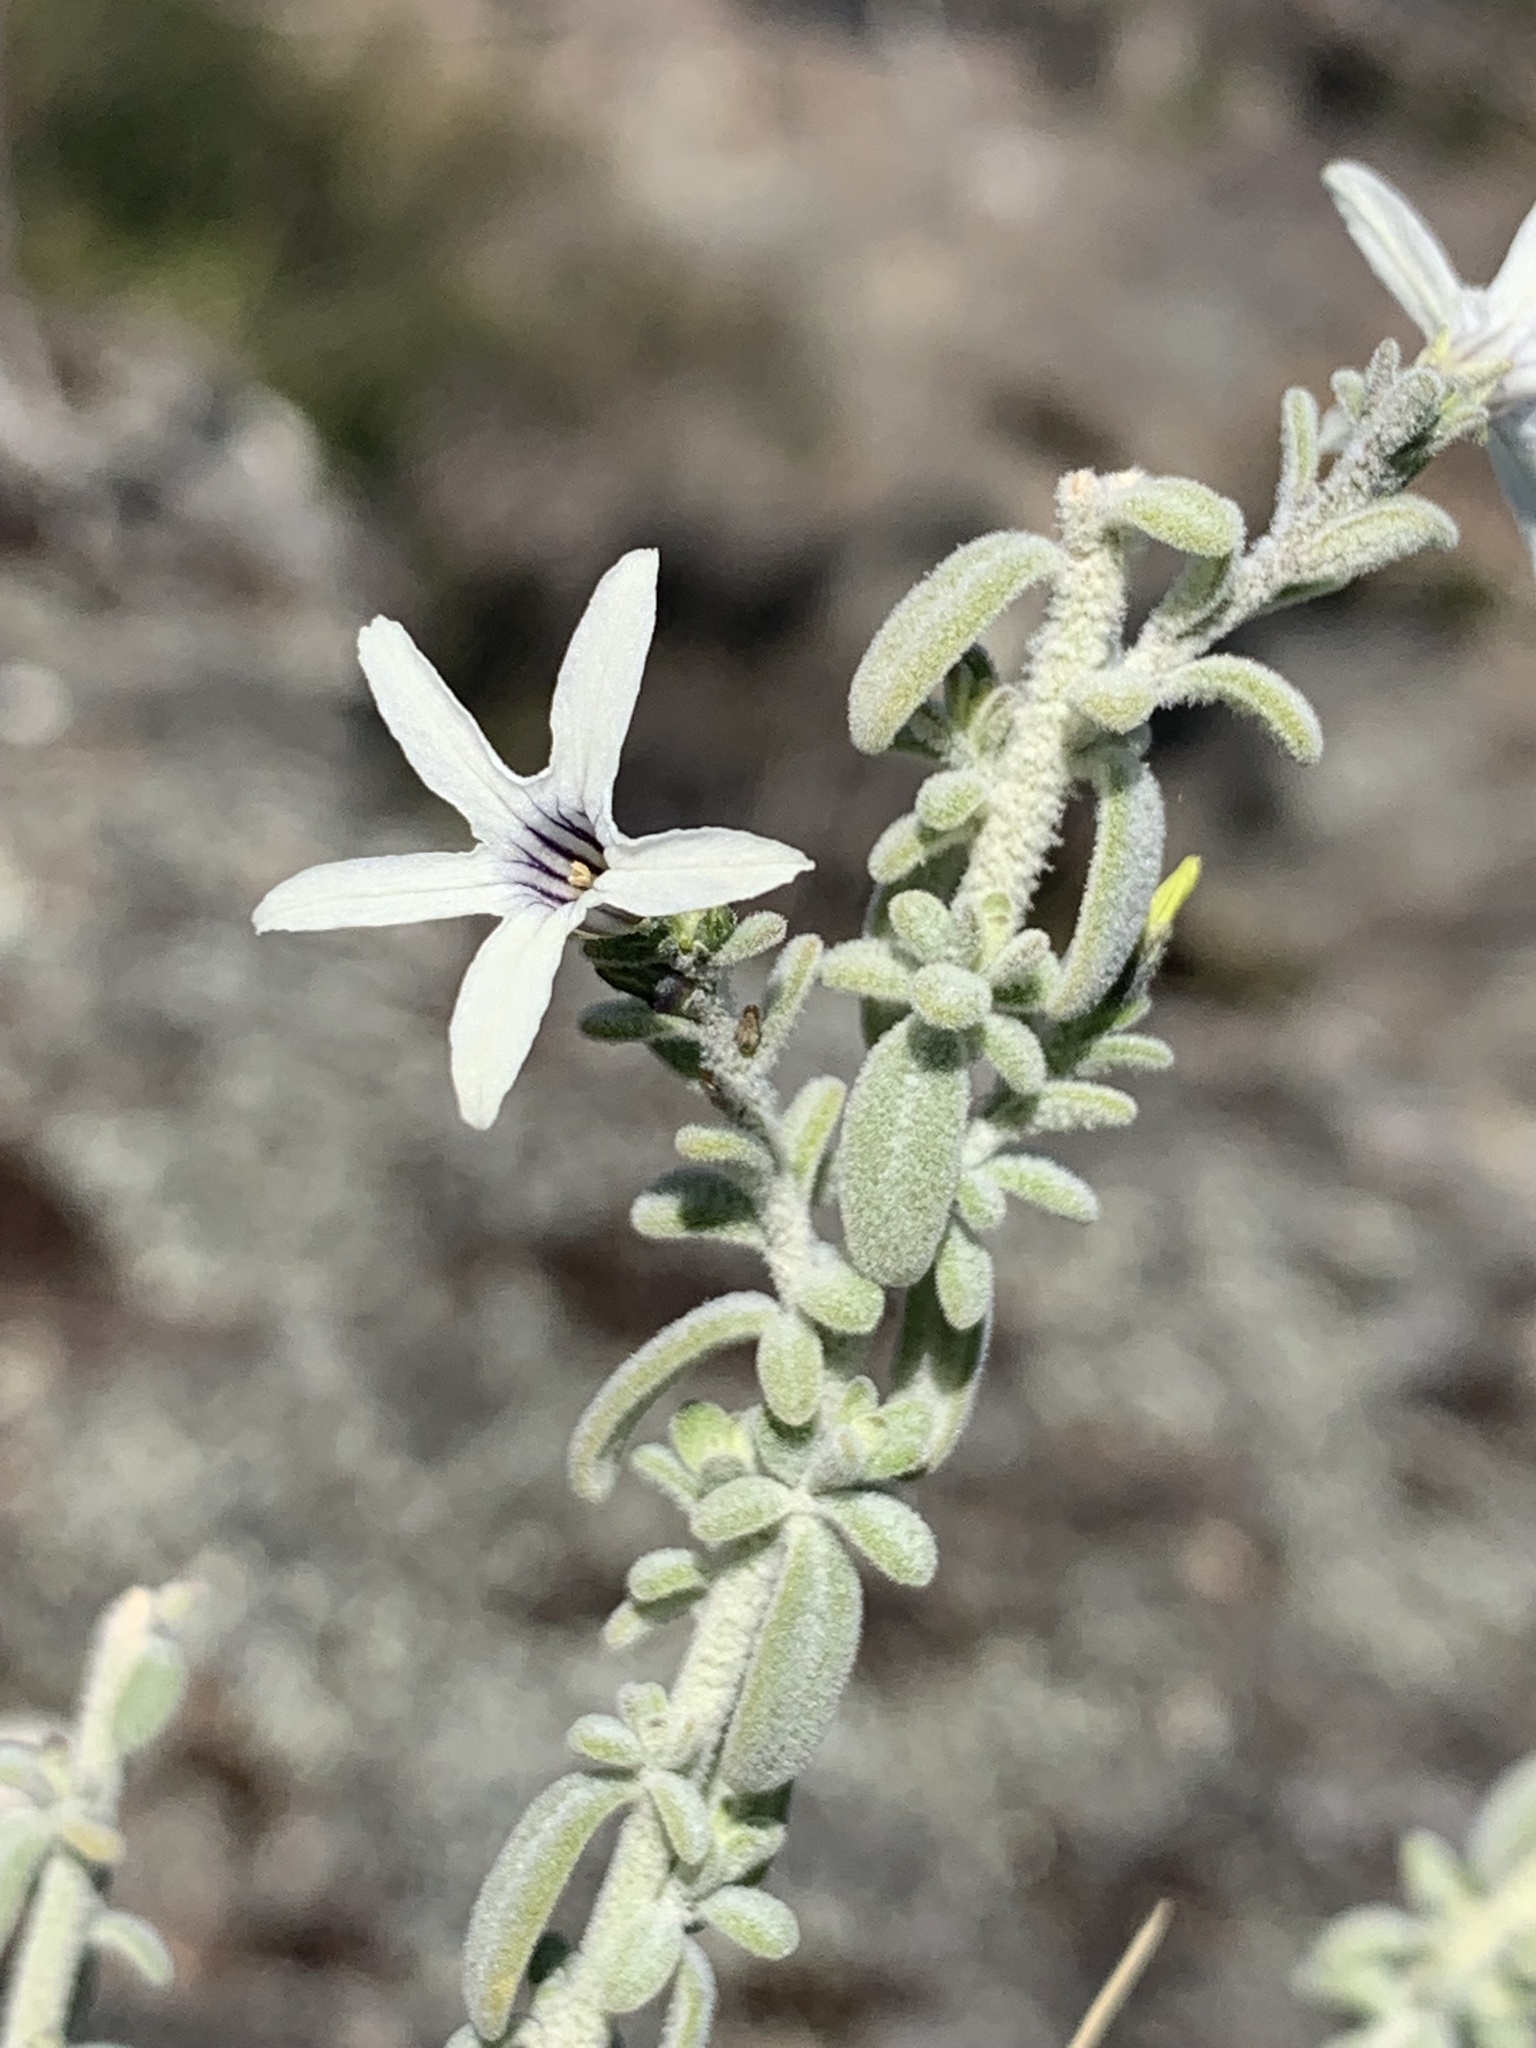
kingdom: Plantae
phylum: Tracheophyta
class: Magnoliopsida
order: Solanales
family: Solanaceae
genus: Cyphanthera
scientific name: Cyphanthera albicans
